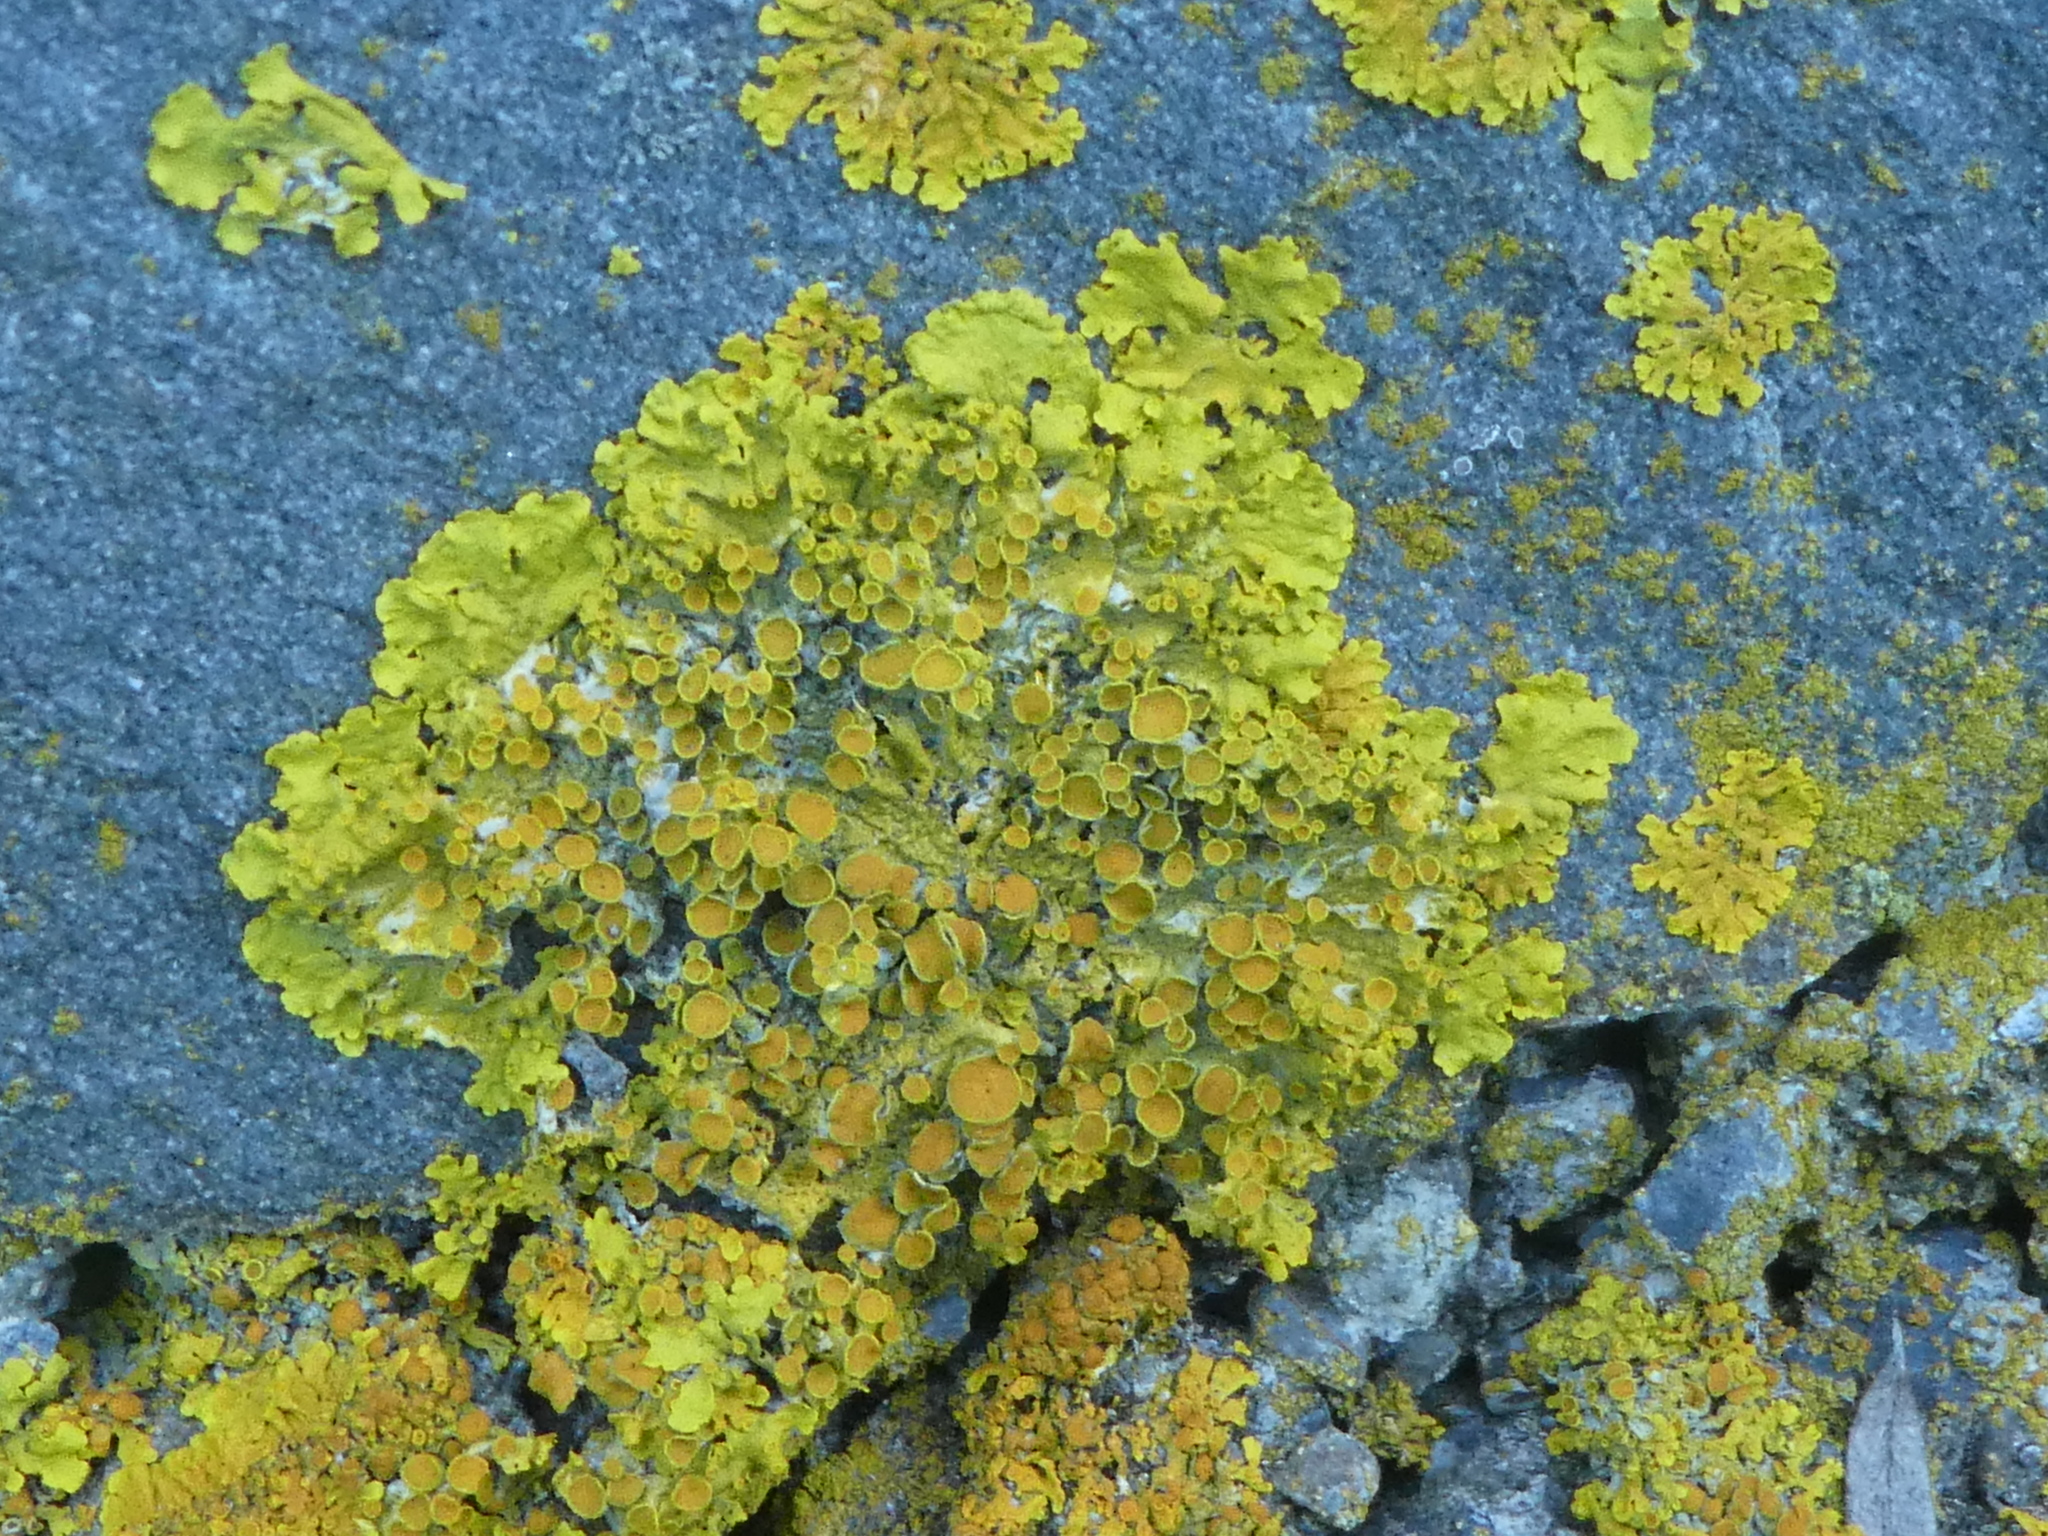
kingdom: Fungi
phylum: Ascomycota
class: Lecanoromycetes
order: Teloschistales
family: Teloschistaceae
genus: Xanthoria
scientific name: Xanthoria parietina
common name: Common orange lichen
